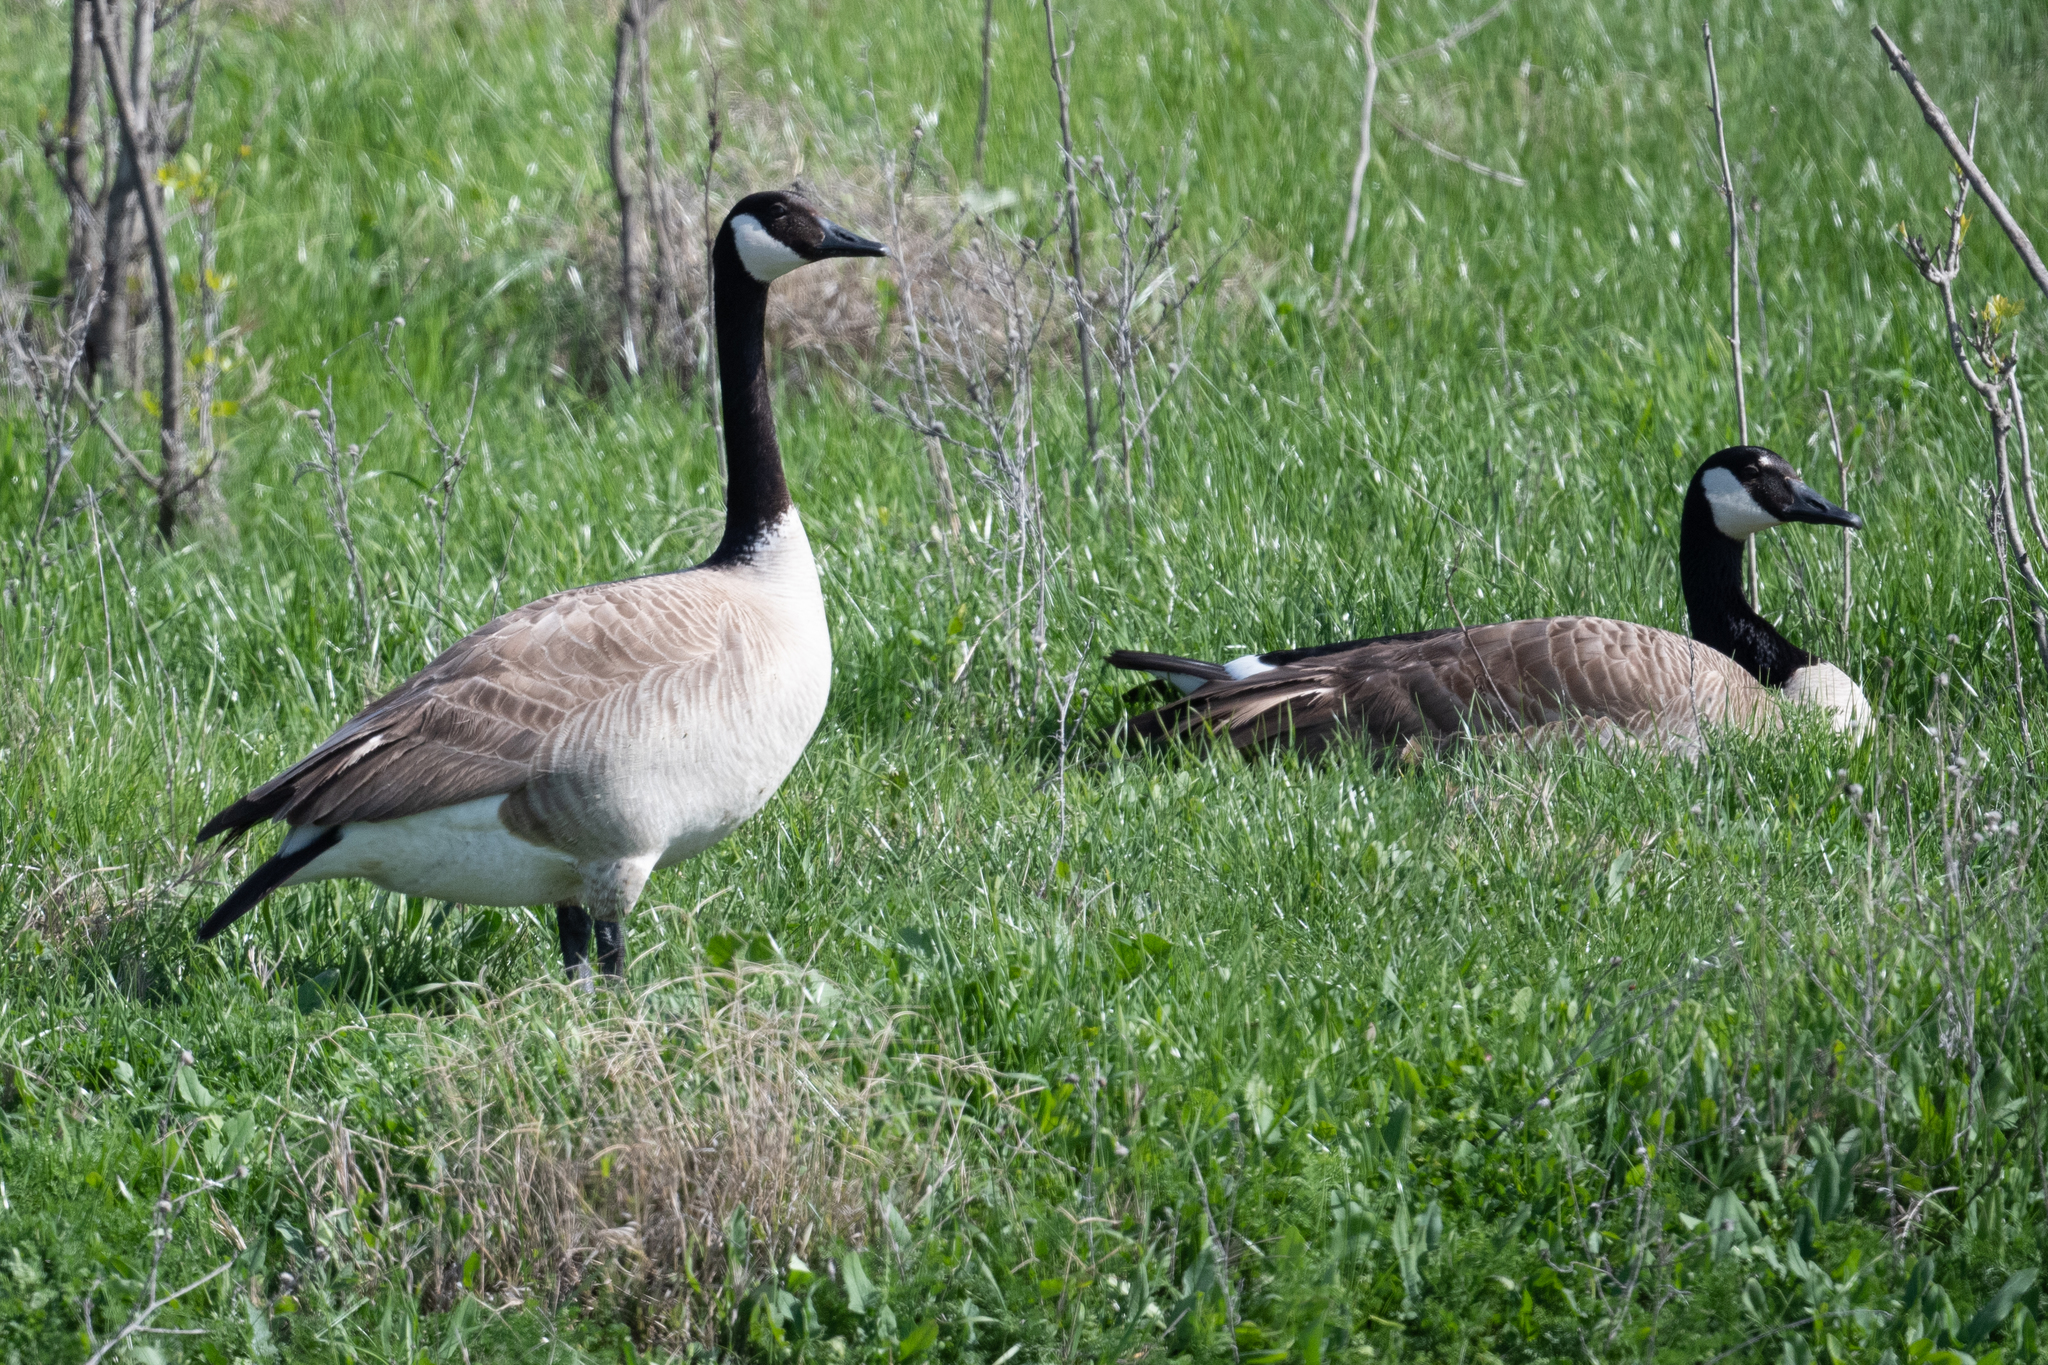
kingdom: Animalia
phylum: Chordata
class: Aves
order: Anseriformes
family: Anatidae
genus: Branta
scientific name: Branta canadensis
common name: Canada goose
